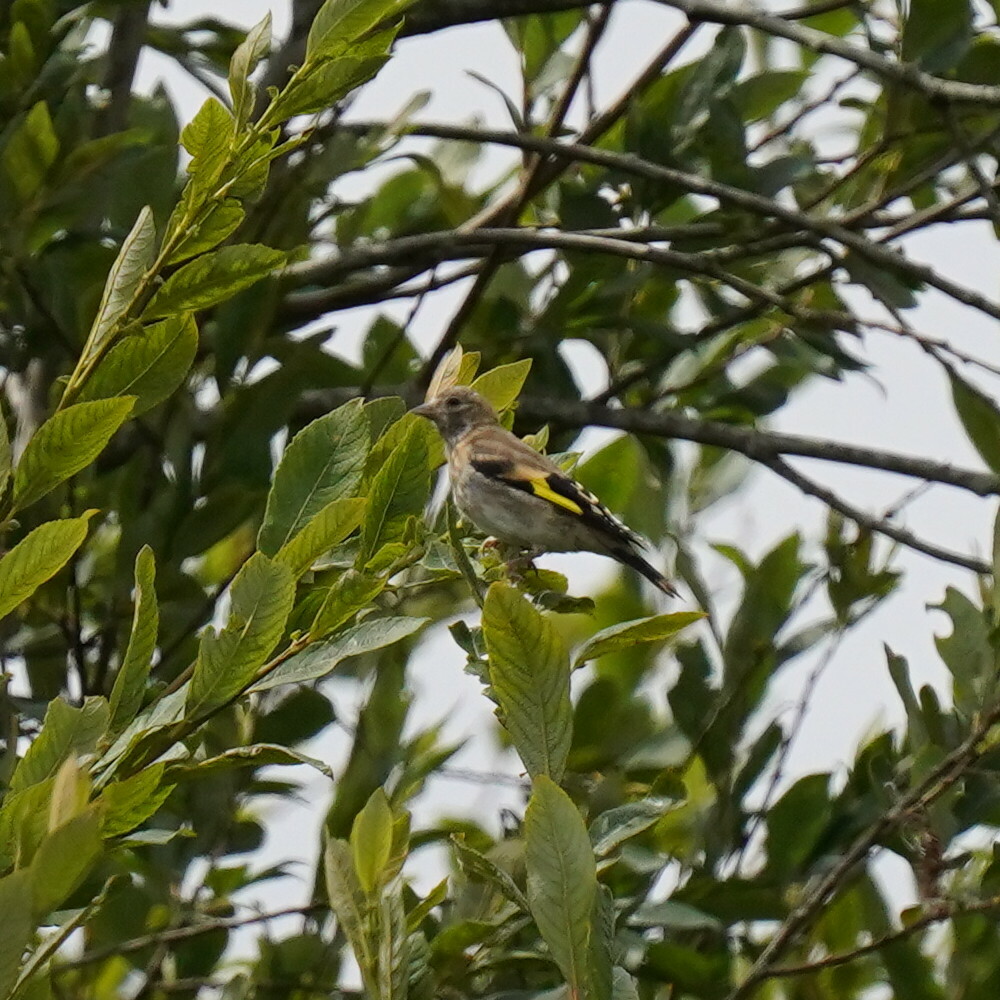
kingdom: Animalia
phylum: Chordata
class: Aves
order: Passeriformes
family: Fringillidae
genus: Carduelis
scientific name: Carduelis carduelis
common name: European goldfinch
